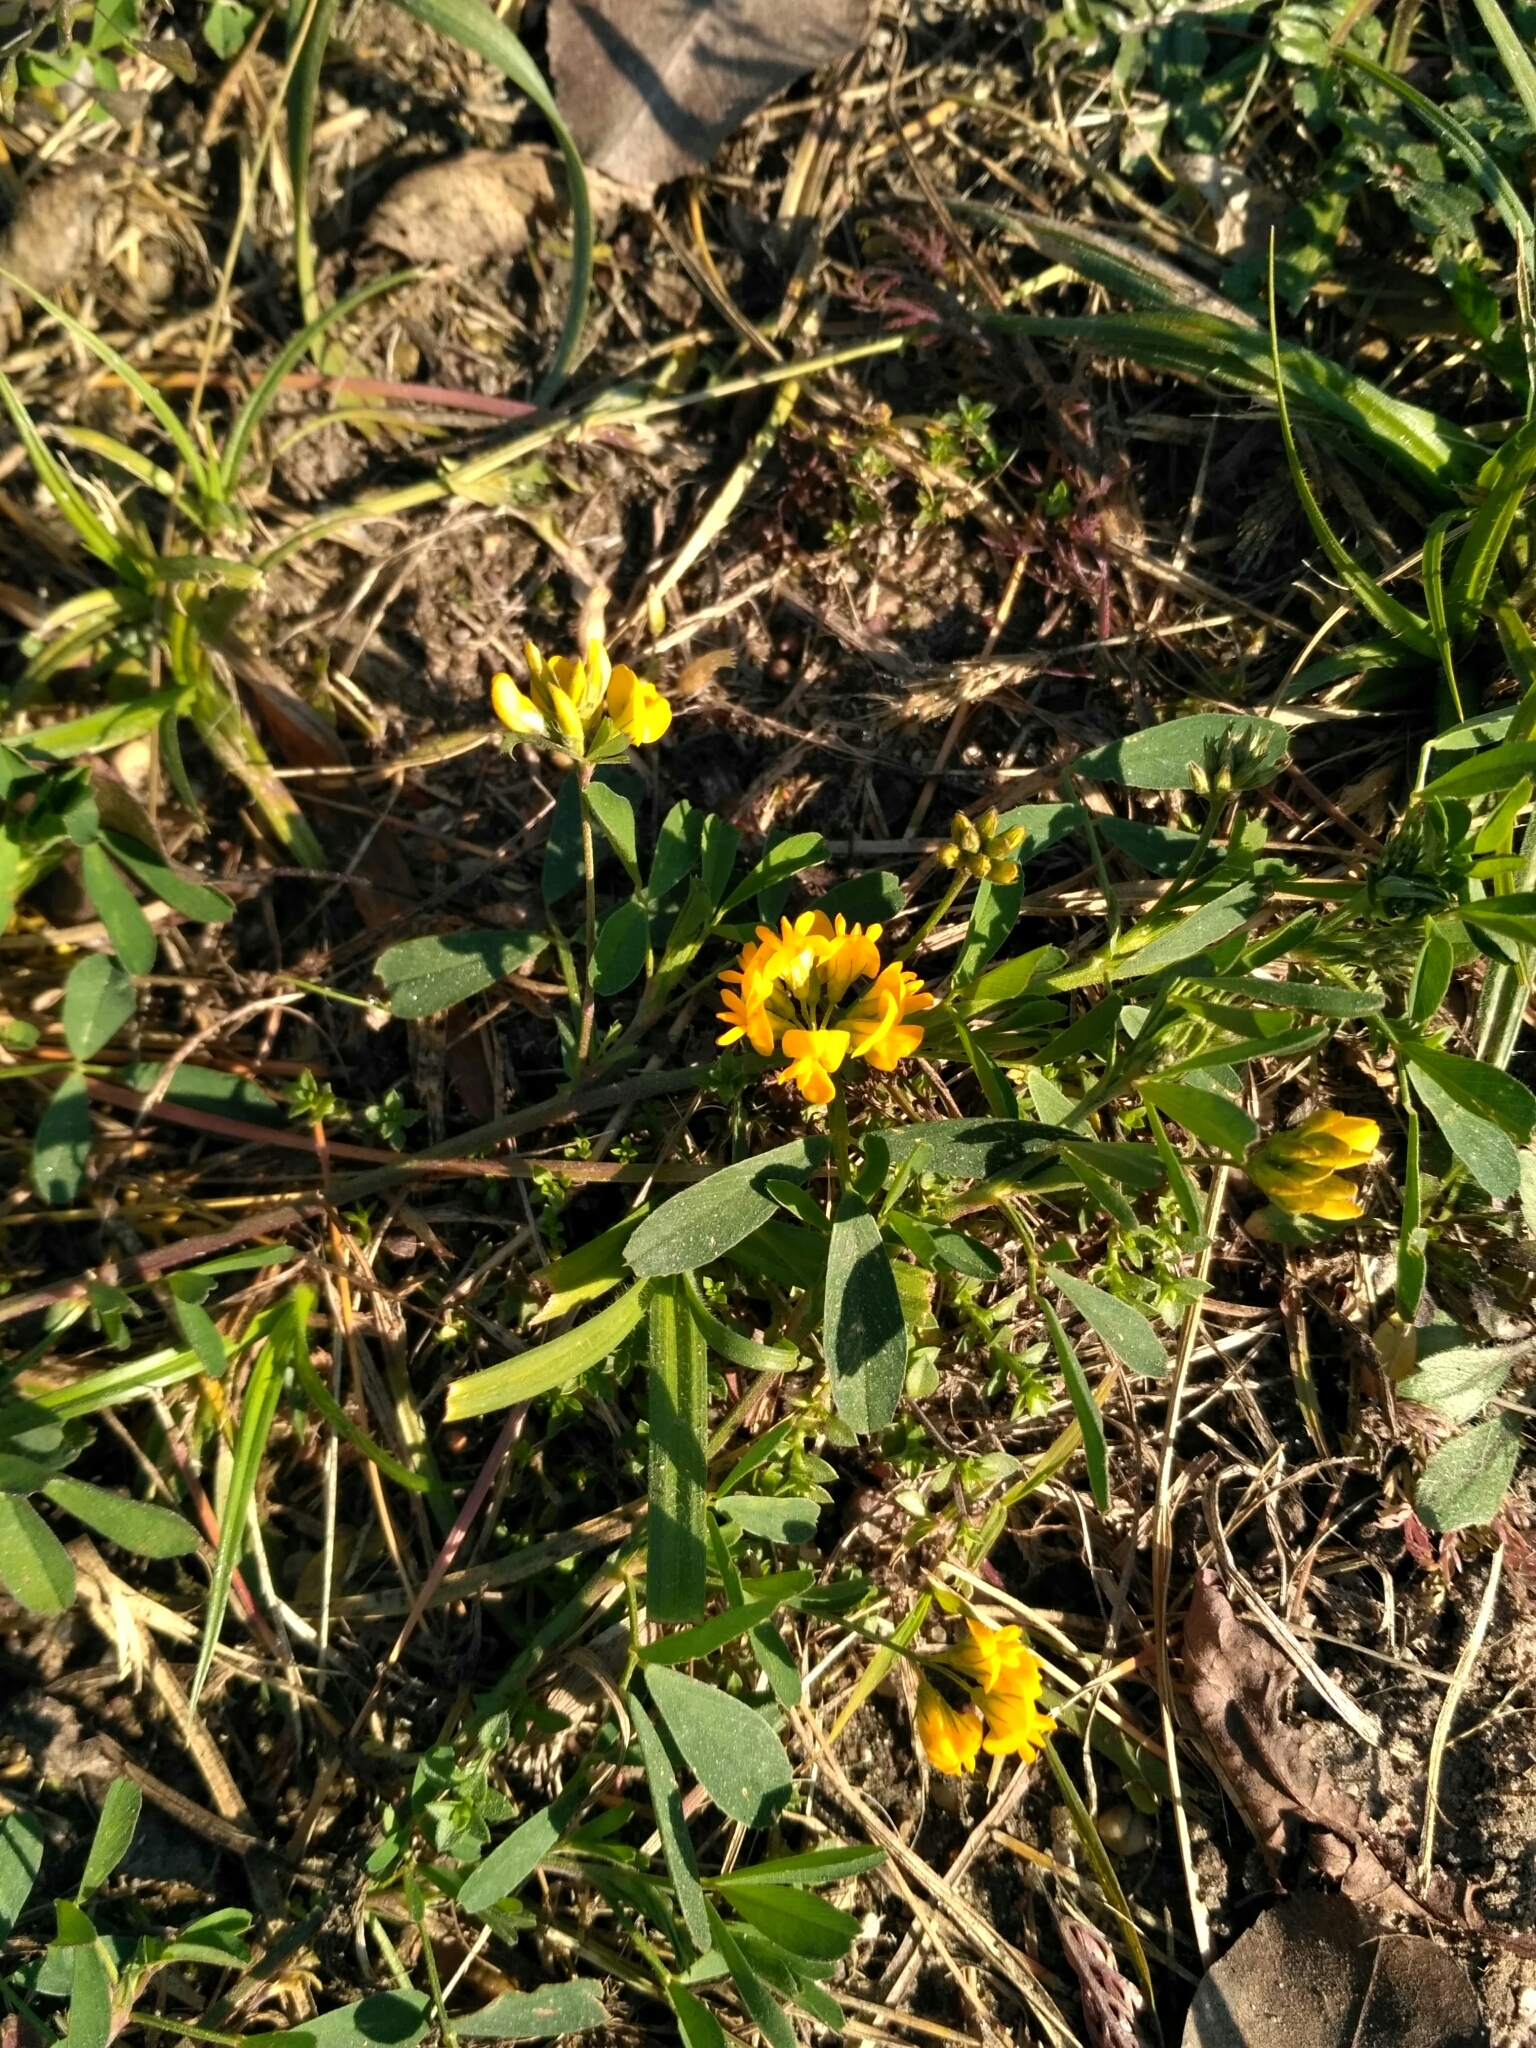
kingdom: Plantae
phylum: Tracheophyta
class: Magnoliopsida
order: Fabales
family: Fabaceae
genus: Medicago
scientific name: Medicago falcata
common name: Sickle medick
